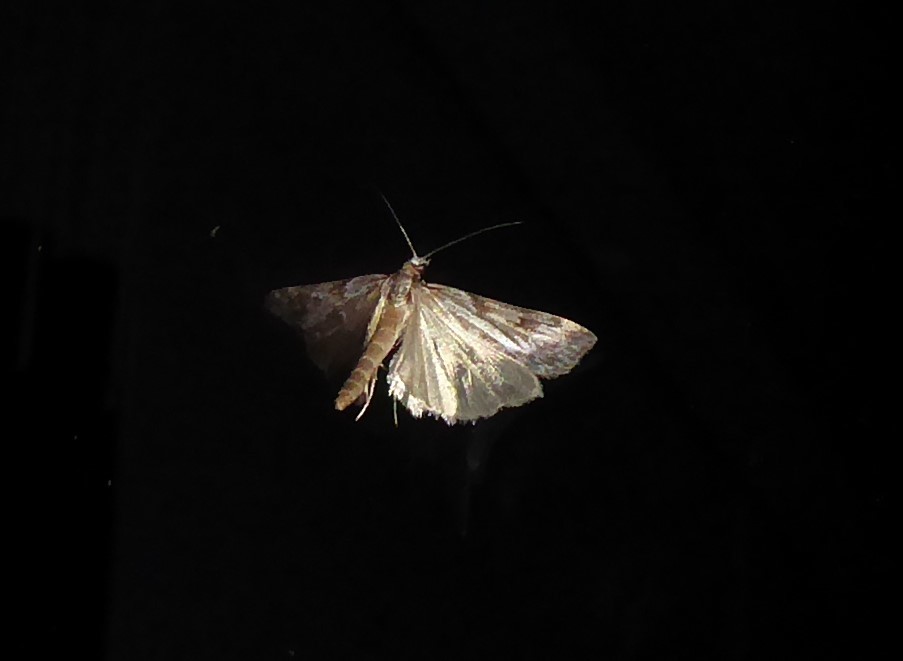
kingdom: Animalia
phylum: Arthropoda
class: Insecta
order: Lepidoptera
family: Crambidae
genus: Scoparia
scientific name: Scoparia halopis
